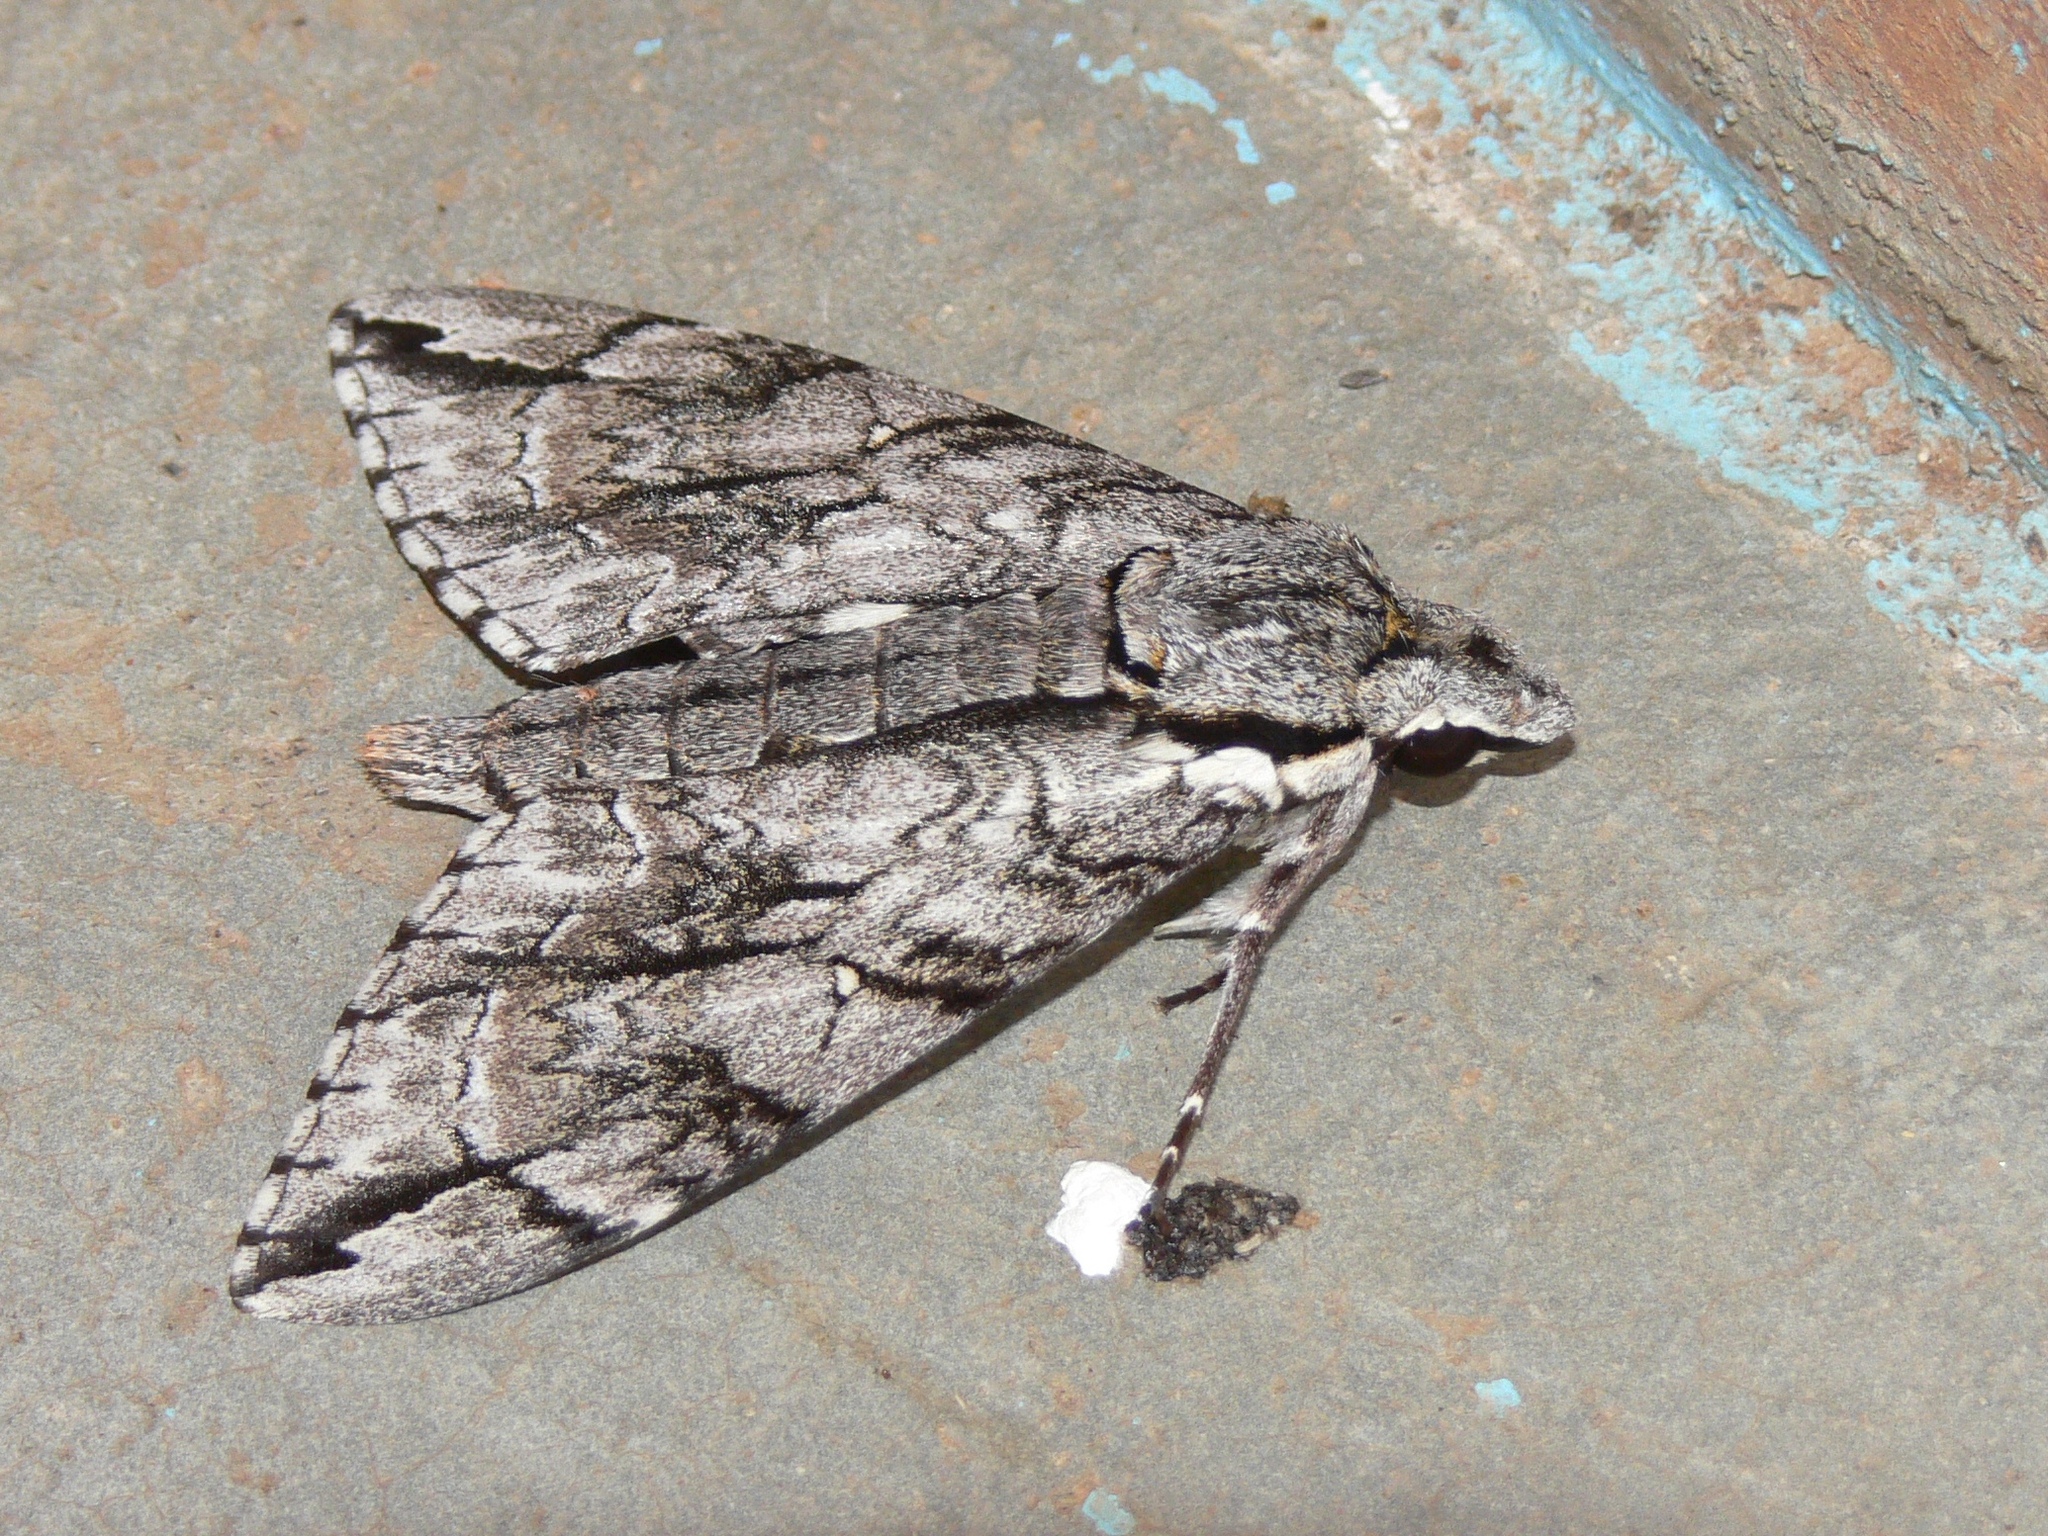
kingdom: Animalia
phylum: Arthropoda
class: Insecta
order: Lepidoptera
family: Sphingidae
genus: Panogena
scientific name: Panogena jasmini
